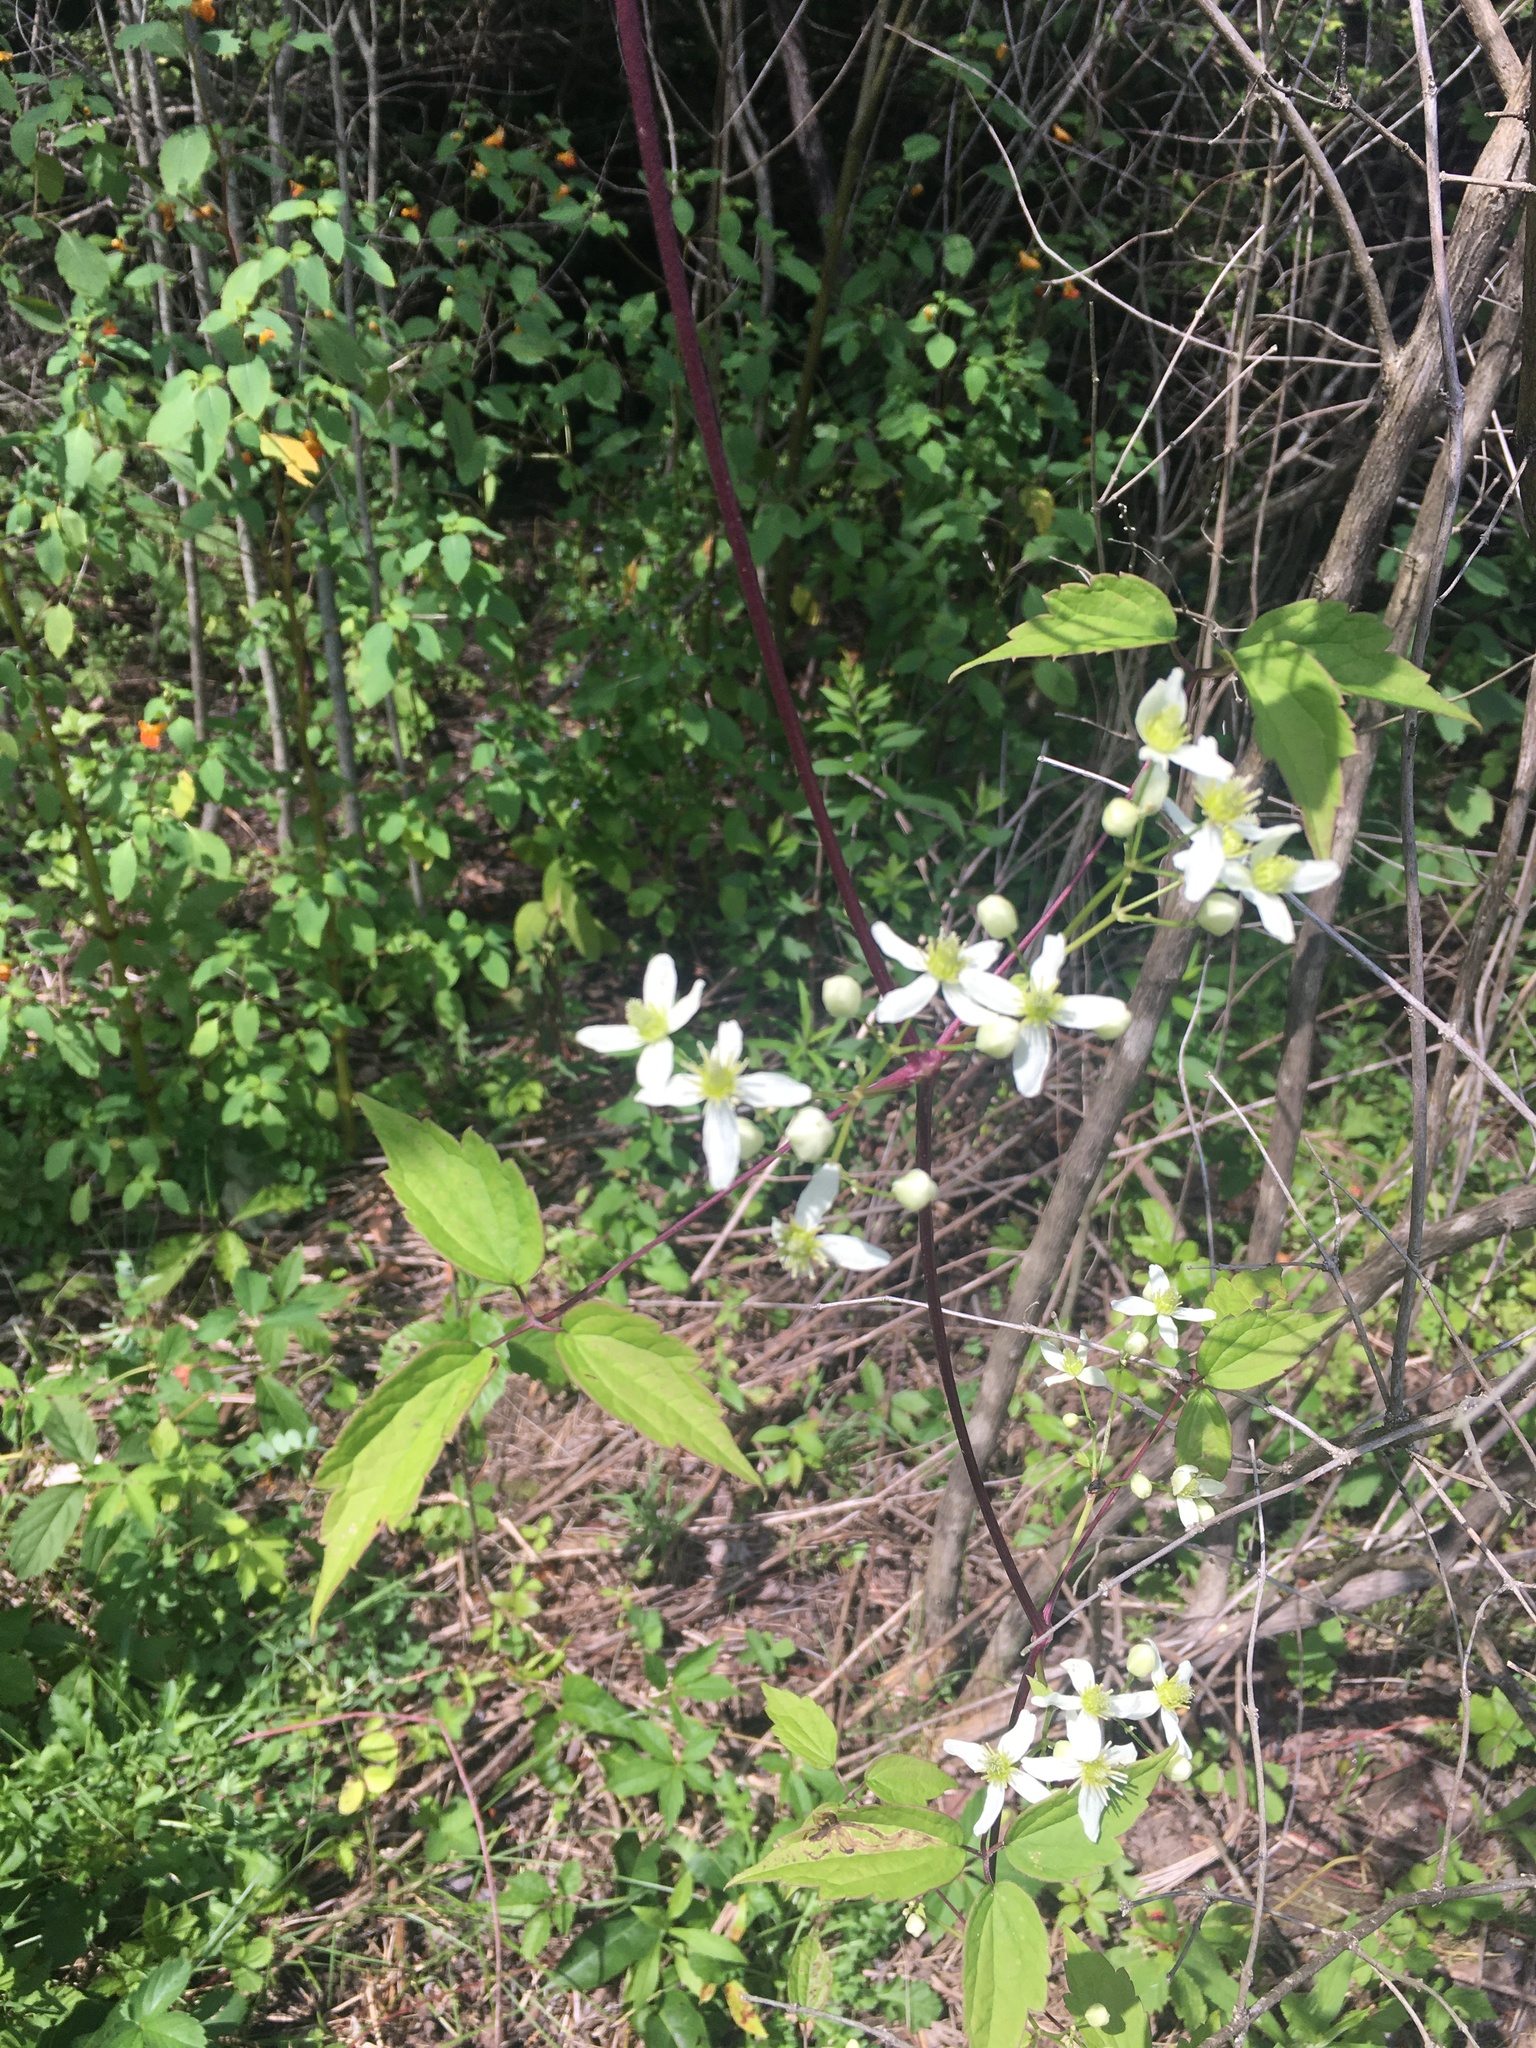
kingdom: Plantae
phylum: Tracheophyta
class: Magnoliopsida
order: Ranunculales
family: Ranunculaceae
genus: Clematis
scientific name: Clematis virginiana
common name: Virgin's-bower
